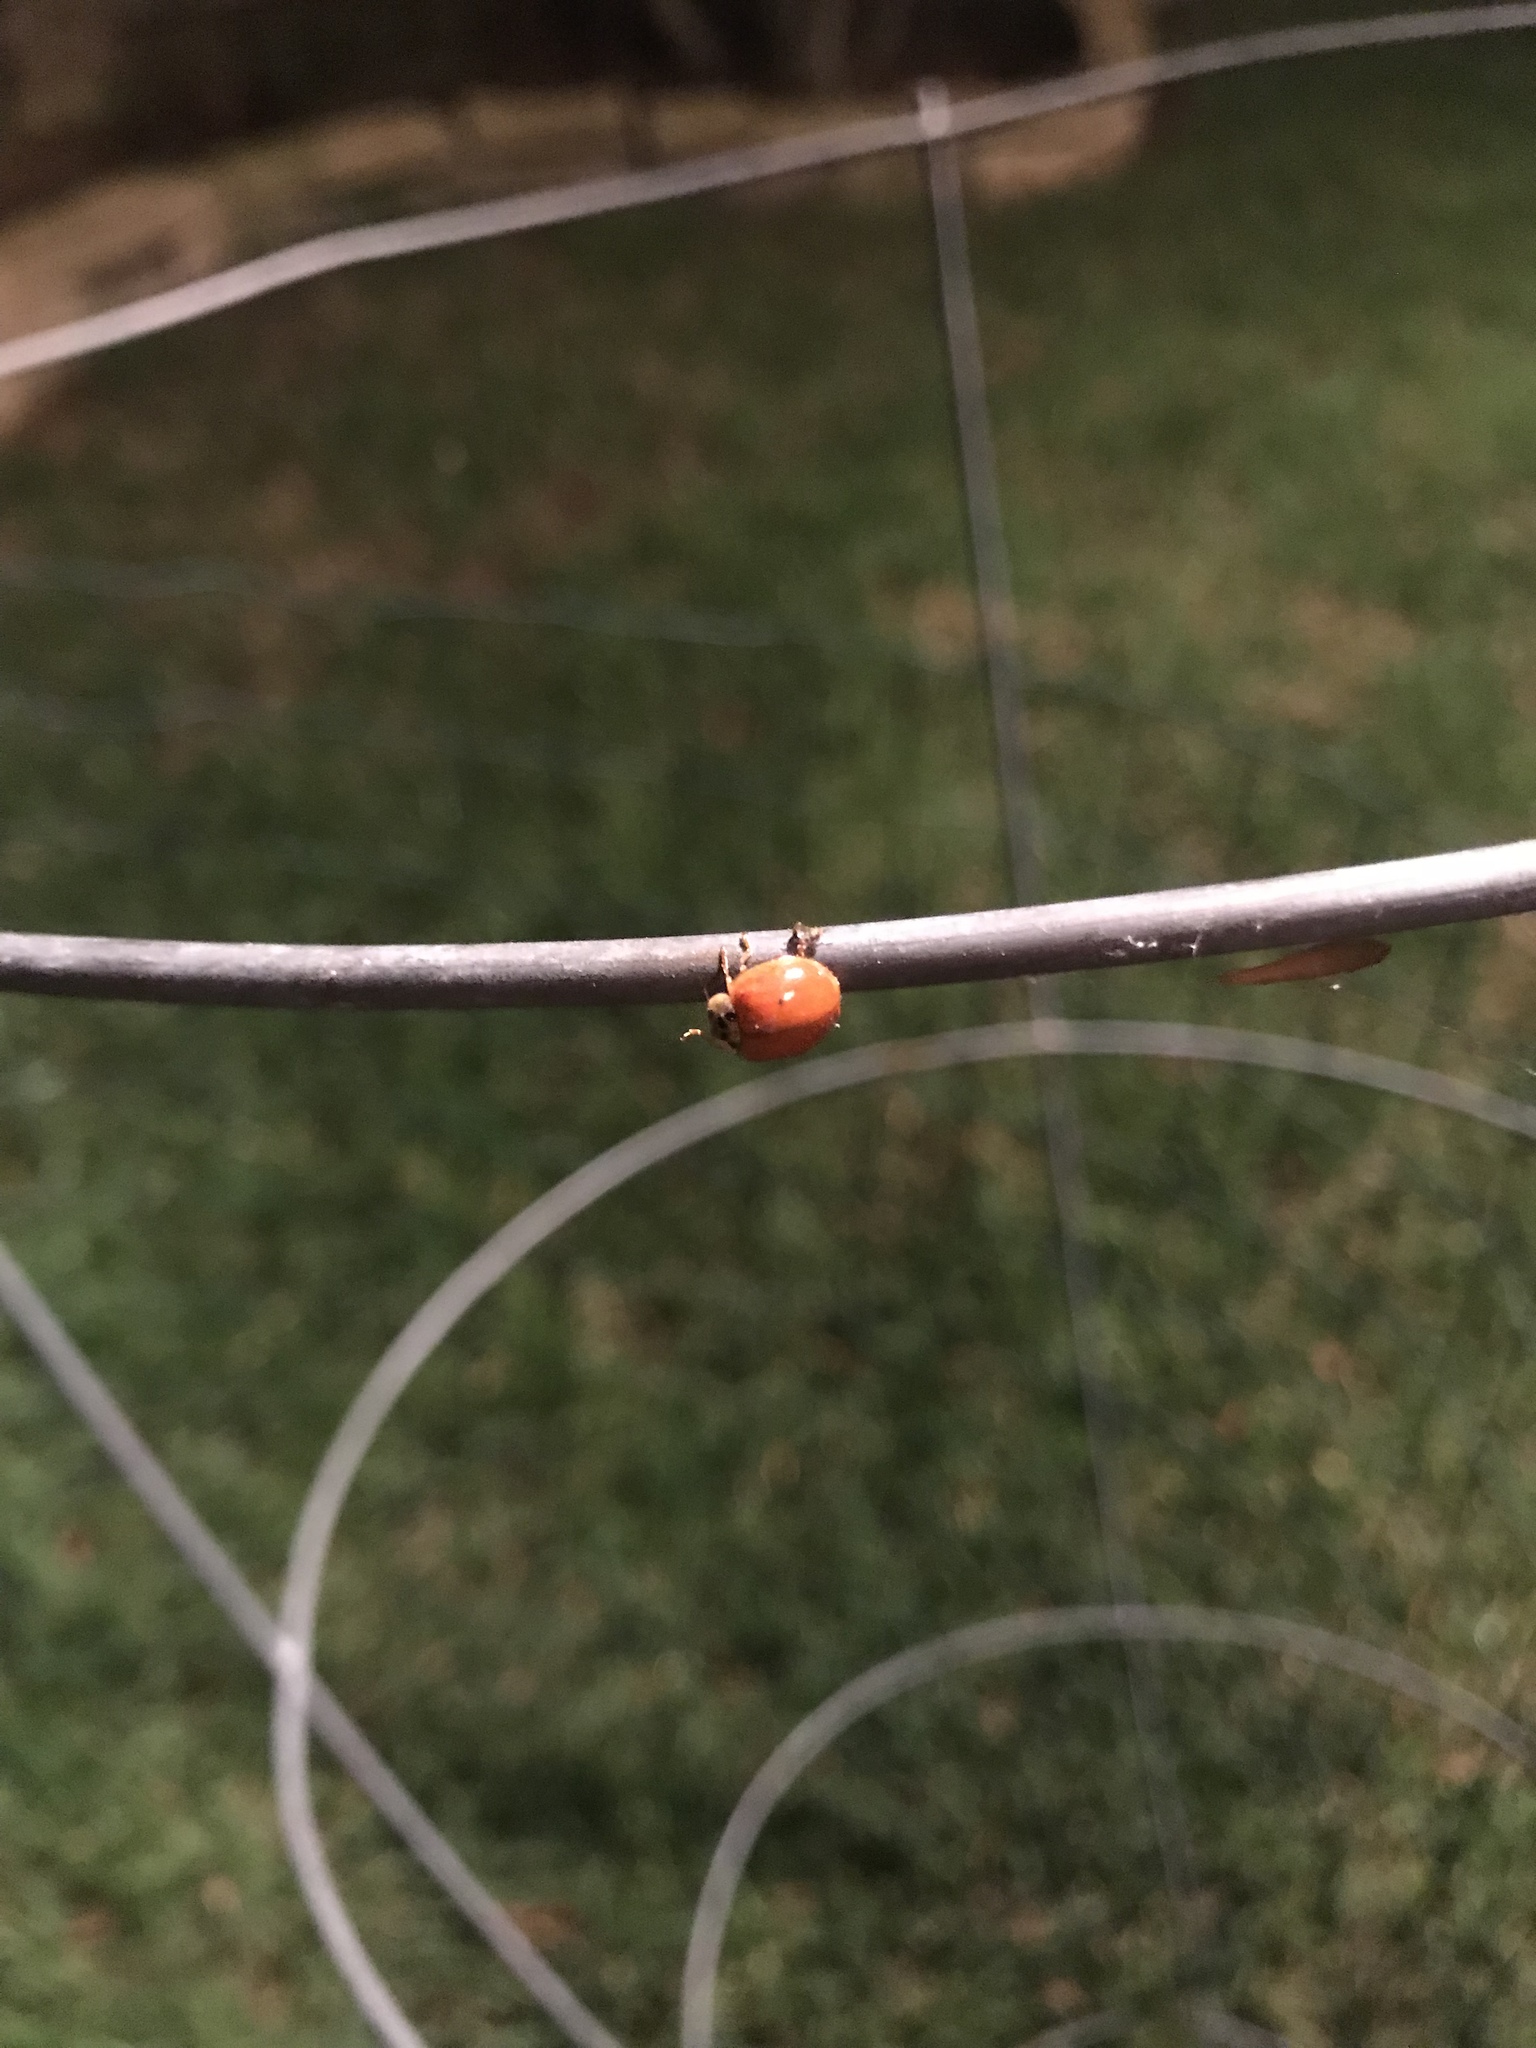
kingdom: Animalia
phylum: Arthropoda
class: Insecta
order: Coleoptera
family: Coccinellidae
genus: Harmonia
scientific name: Harmonia axyridis
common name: Harlequin ladybird
